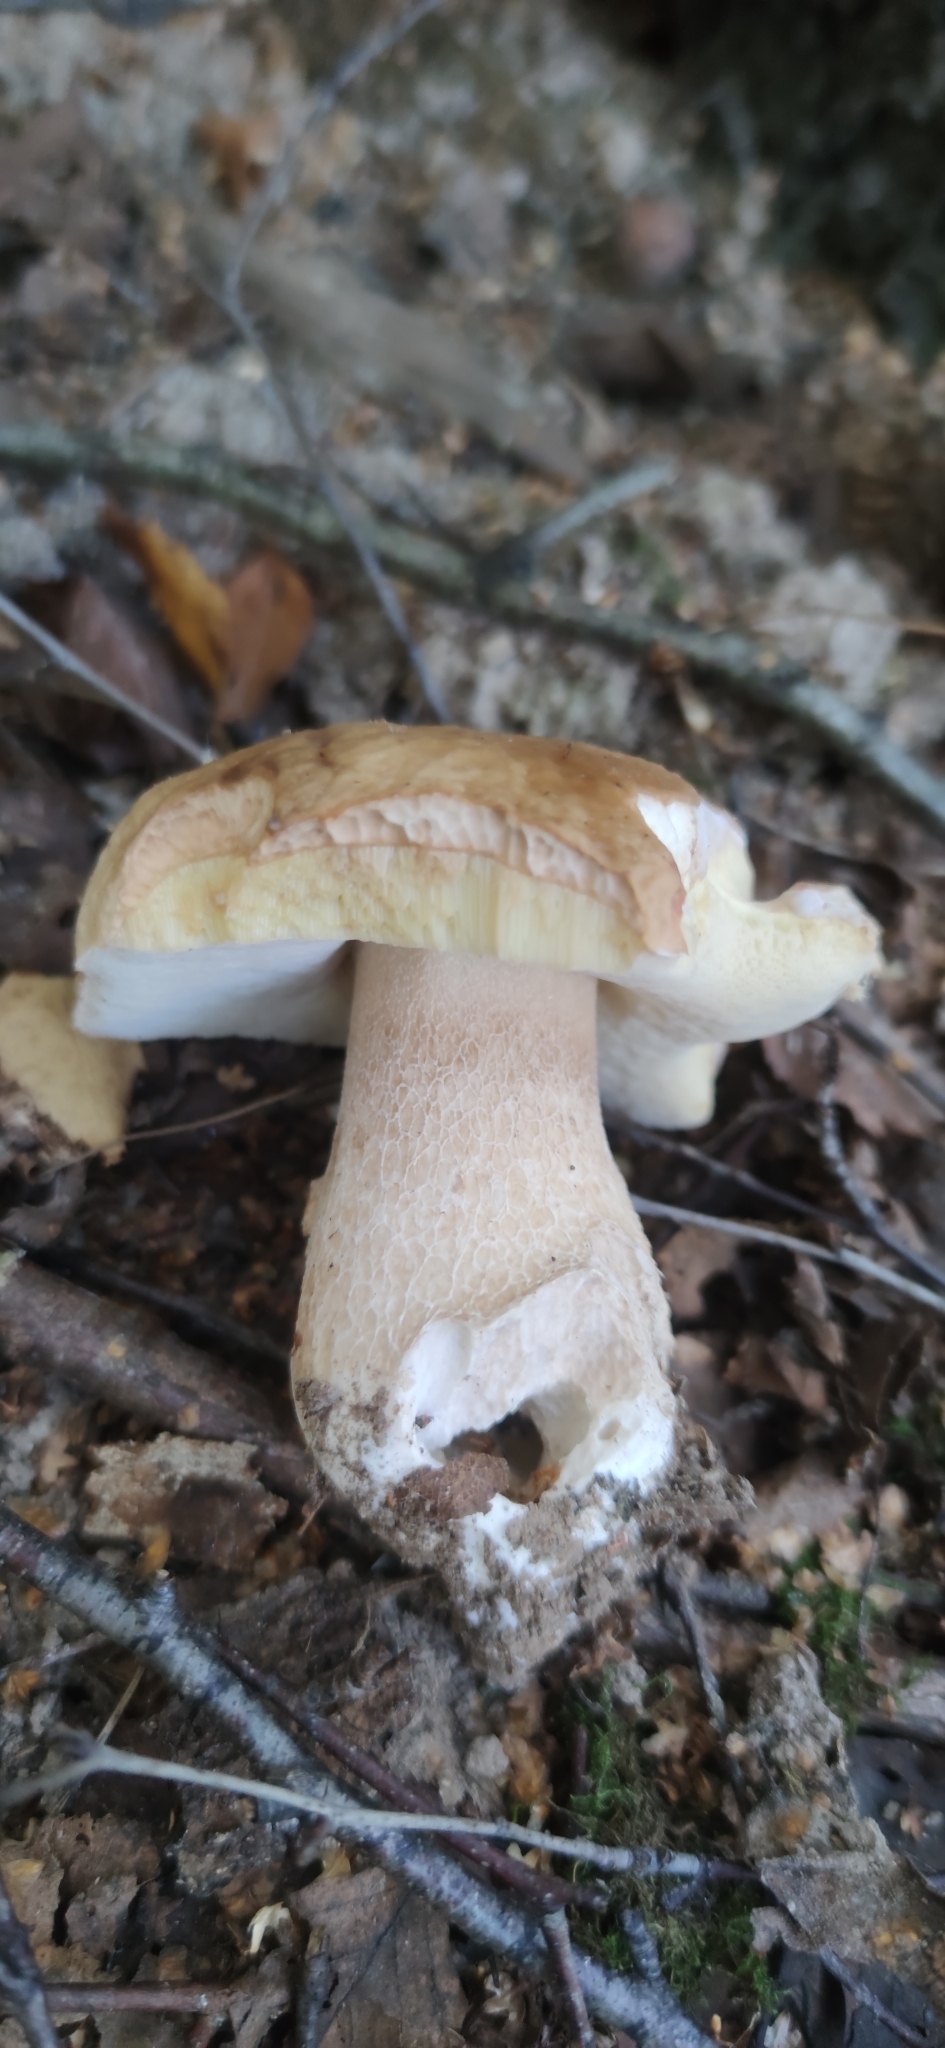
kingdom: Fungi
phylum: Basidiomycota
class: Agaricomycetes
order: Boletales
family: Boletaceae
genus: Boletus
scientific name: Boletus edulis
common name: Cep
